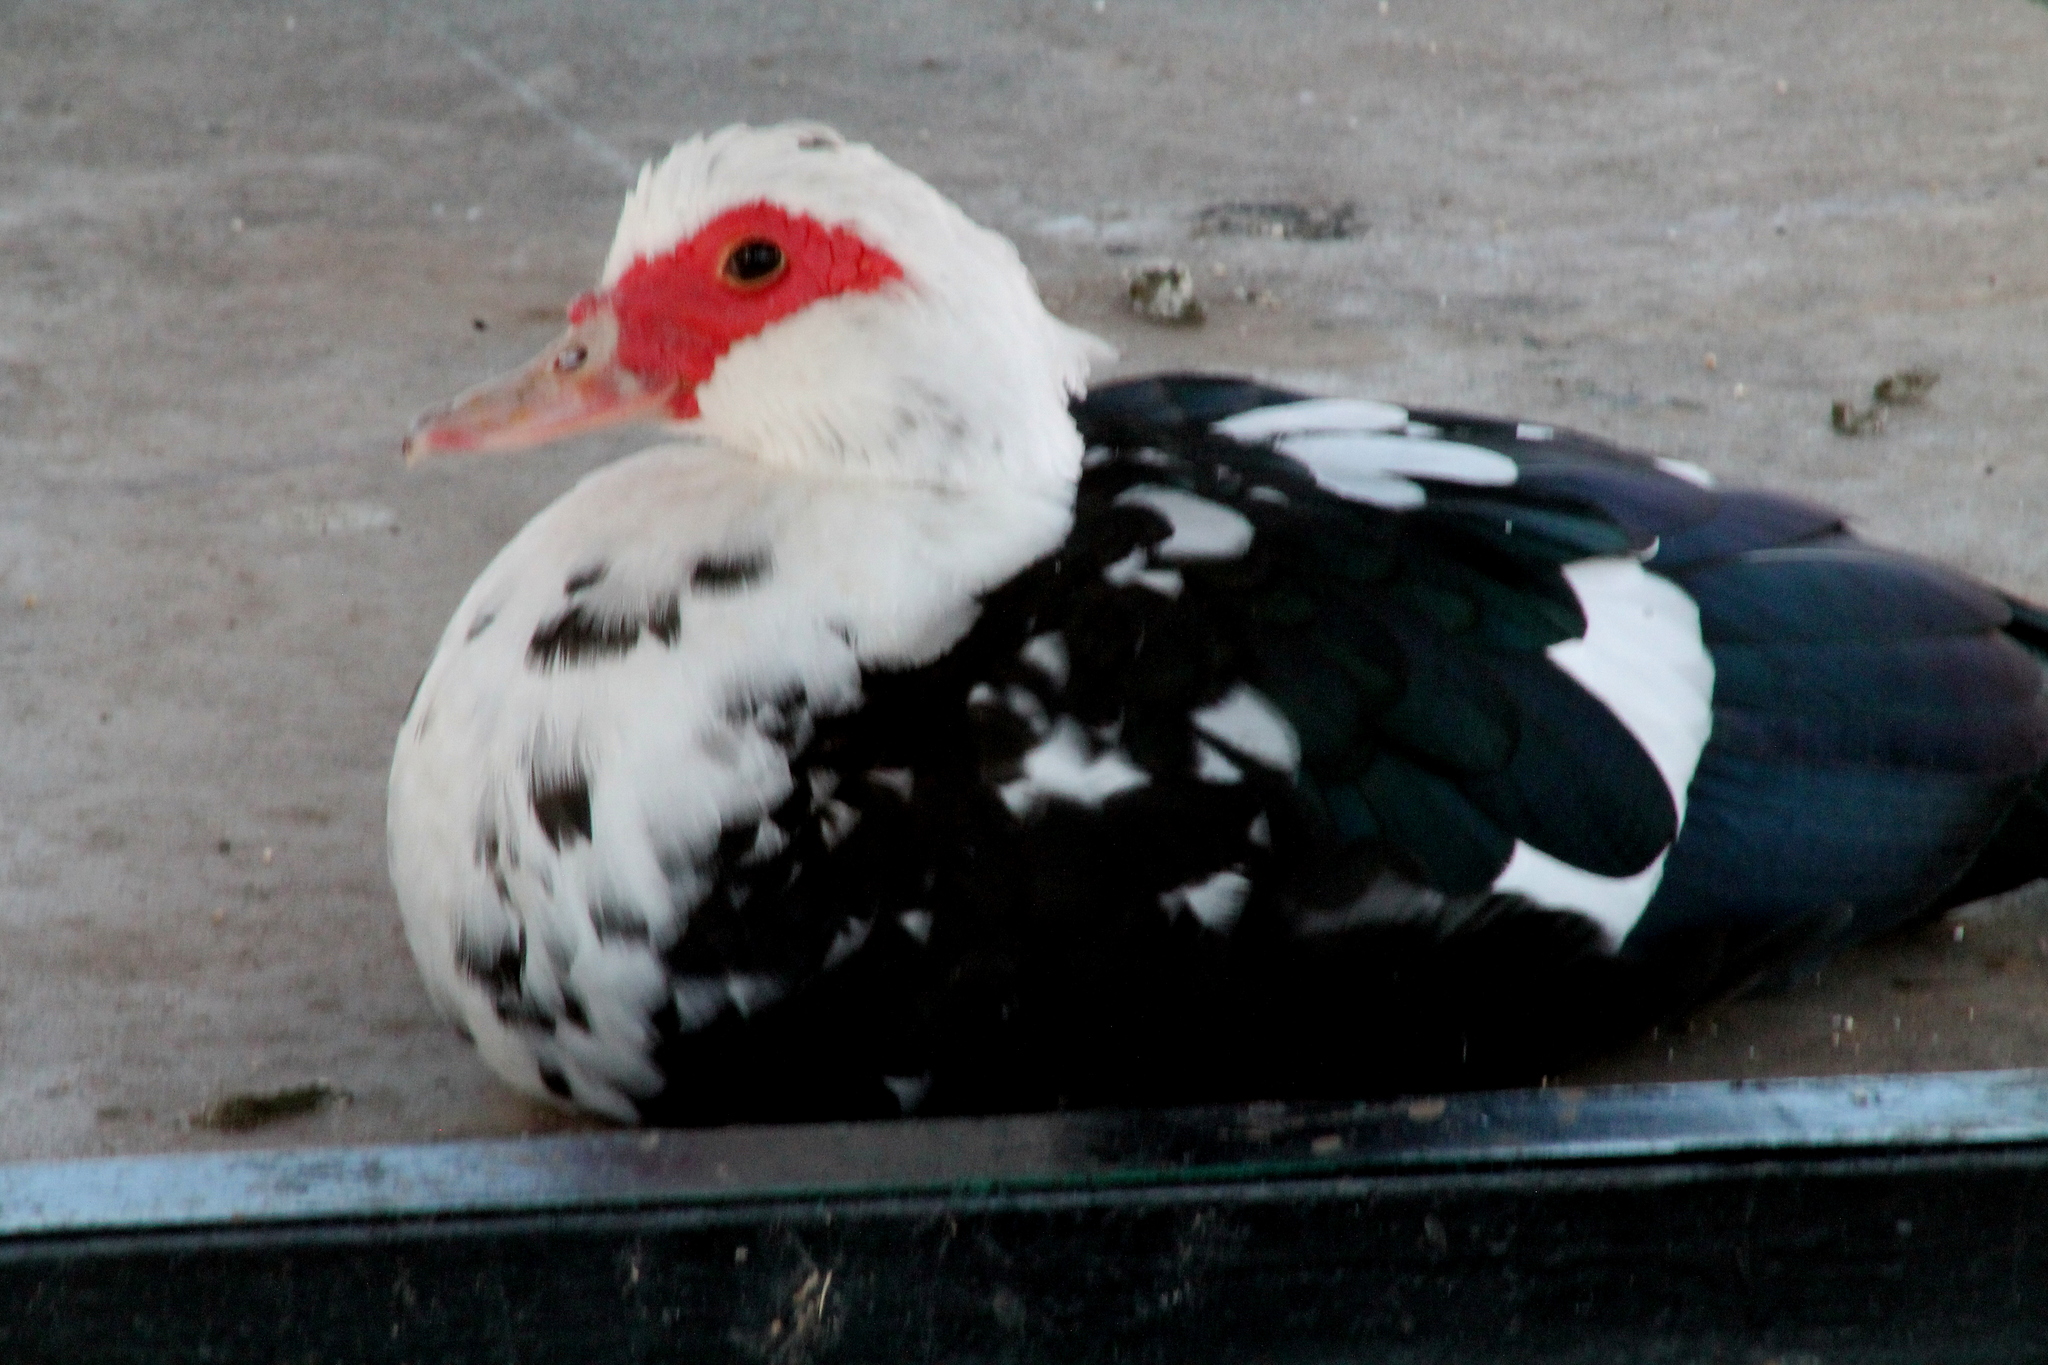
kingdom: Animalia
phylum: Chordata
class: Aves
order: Anseriformes
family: Anatidae
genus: Cairina
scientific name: Cairina moschata
